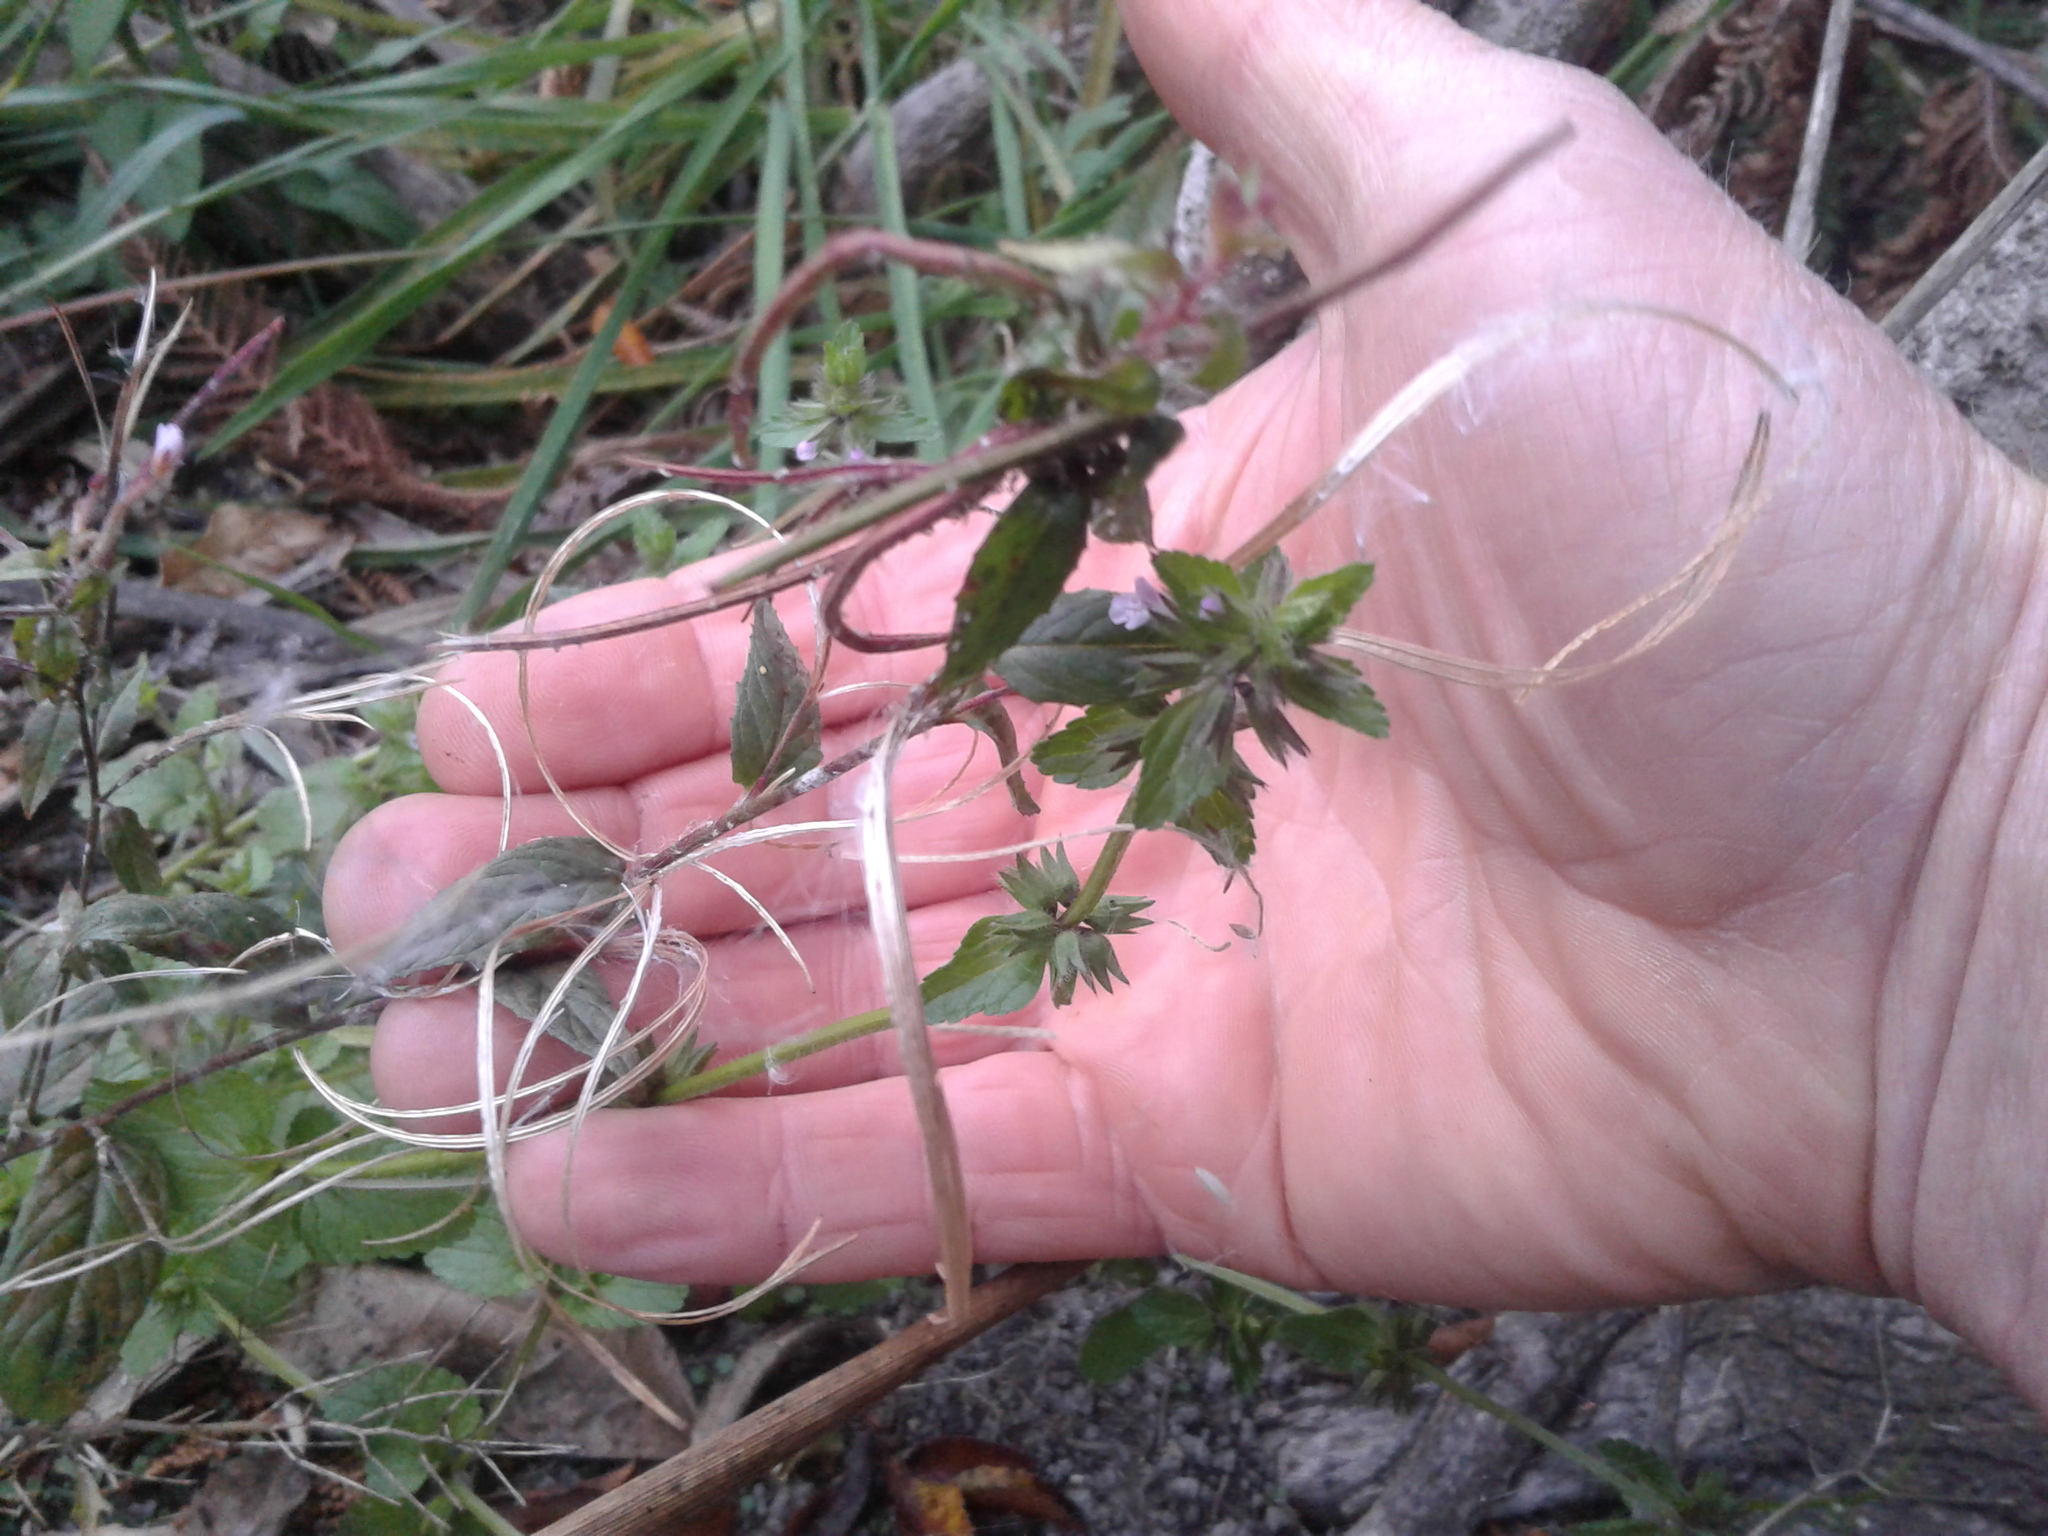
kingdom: Plantae
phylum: Tracheophyta
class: Magnoliopsida
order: Myrtales
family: Onagraceae
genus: Epilobium
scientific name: Epilobium ciliatum
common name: American willowherb
